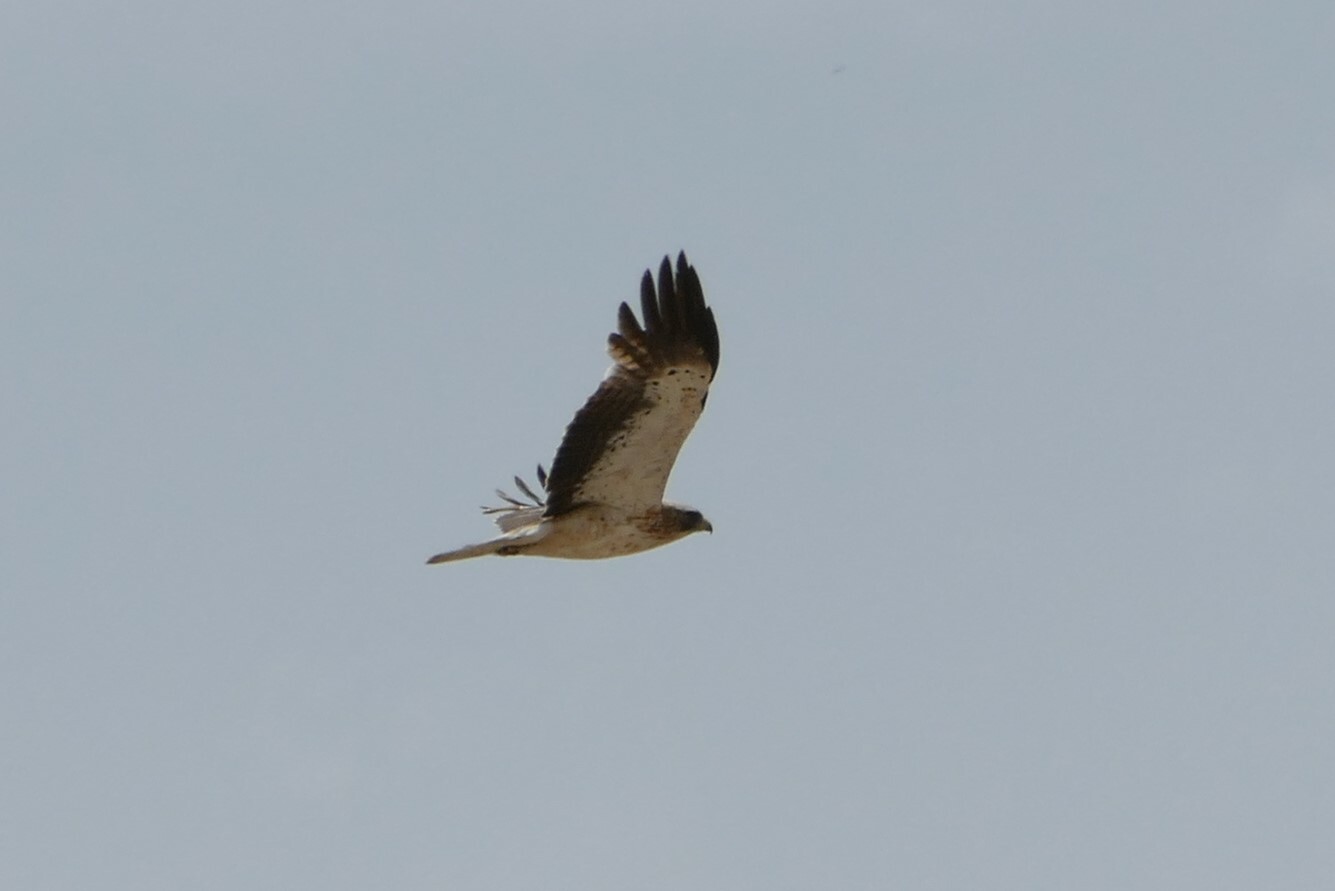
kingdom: Animalia
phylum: Chordata
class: Aves
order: Accipitriformes
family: Accipitridae
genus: Hieraaetus
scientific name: Hieraaetus pennatus
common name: Booted eagle
